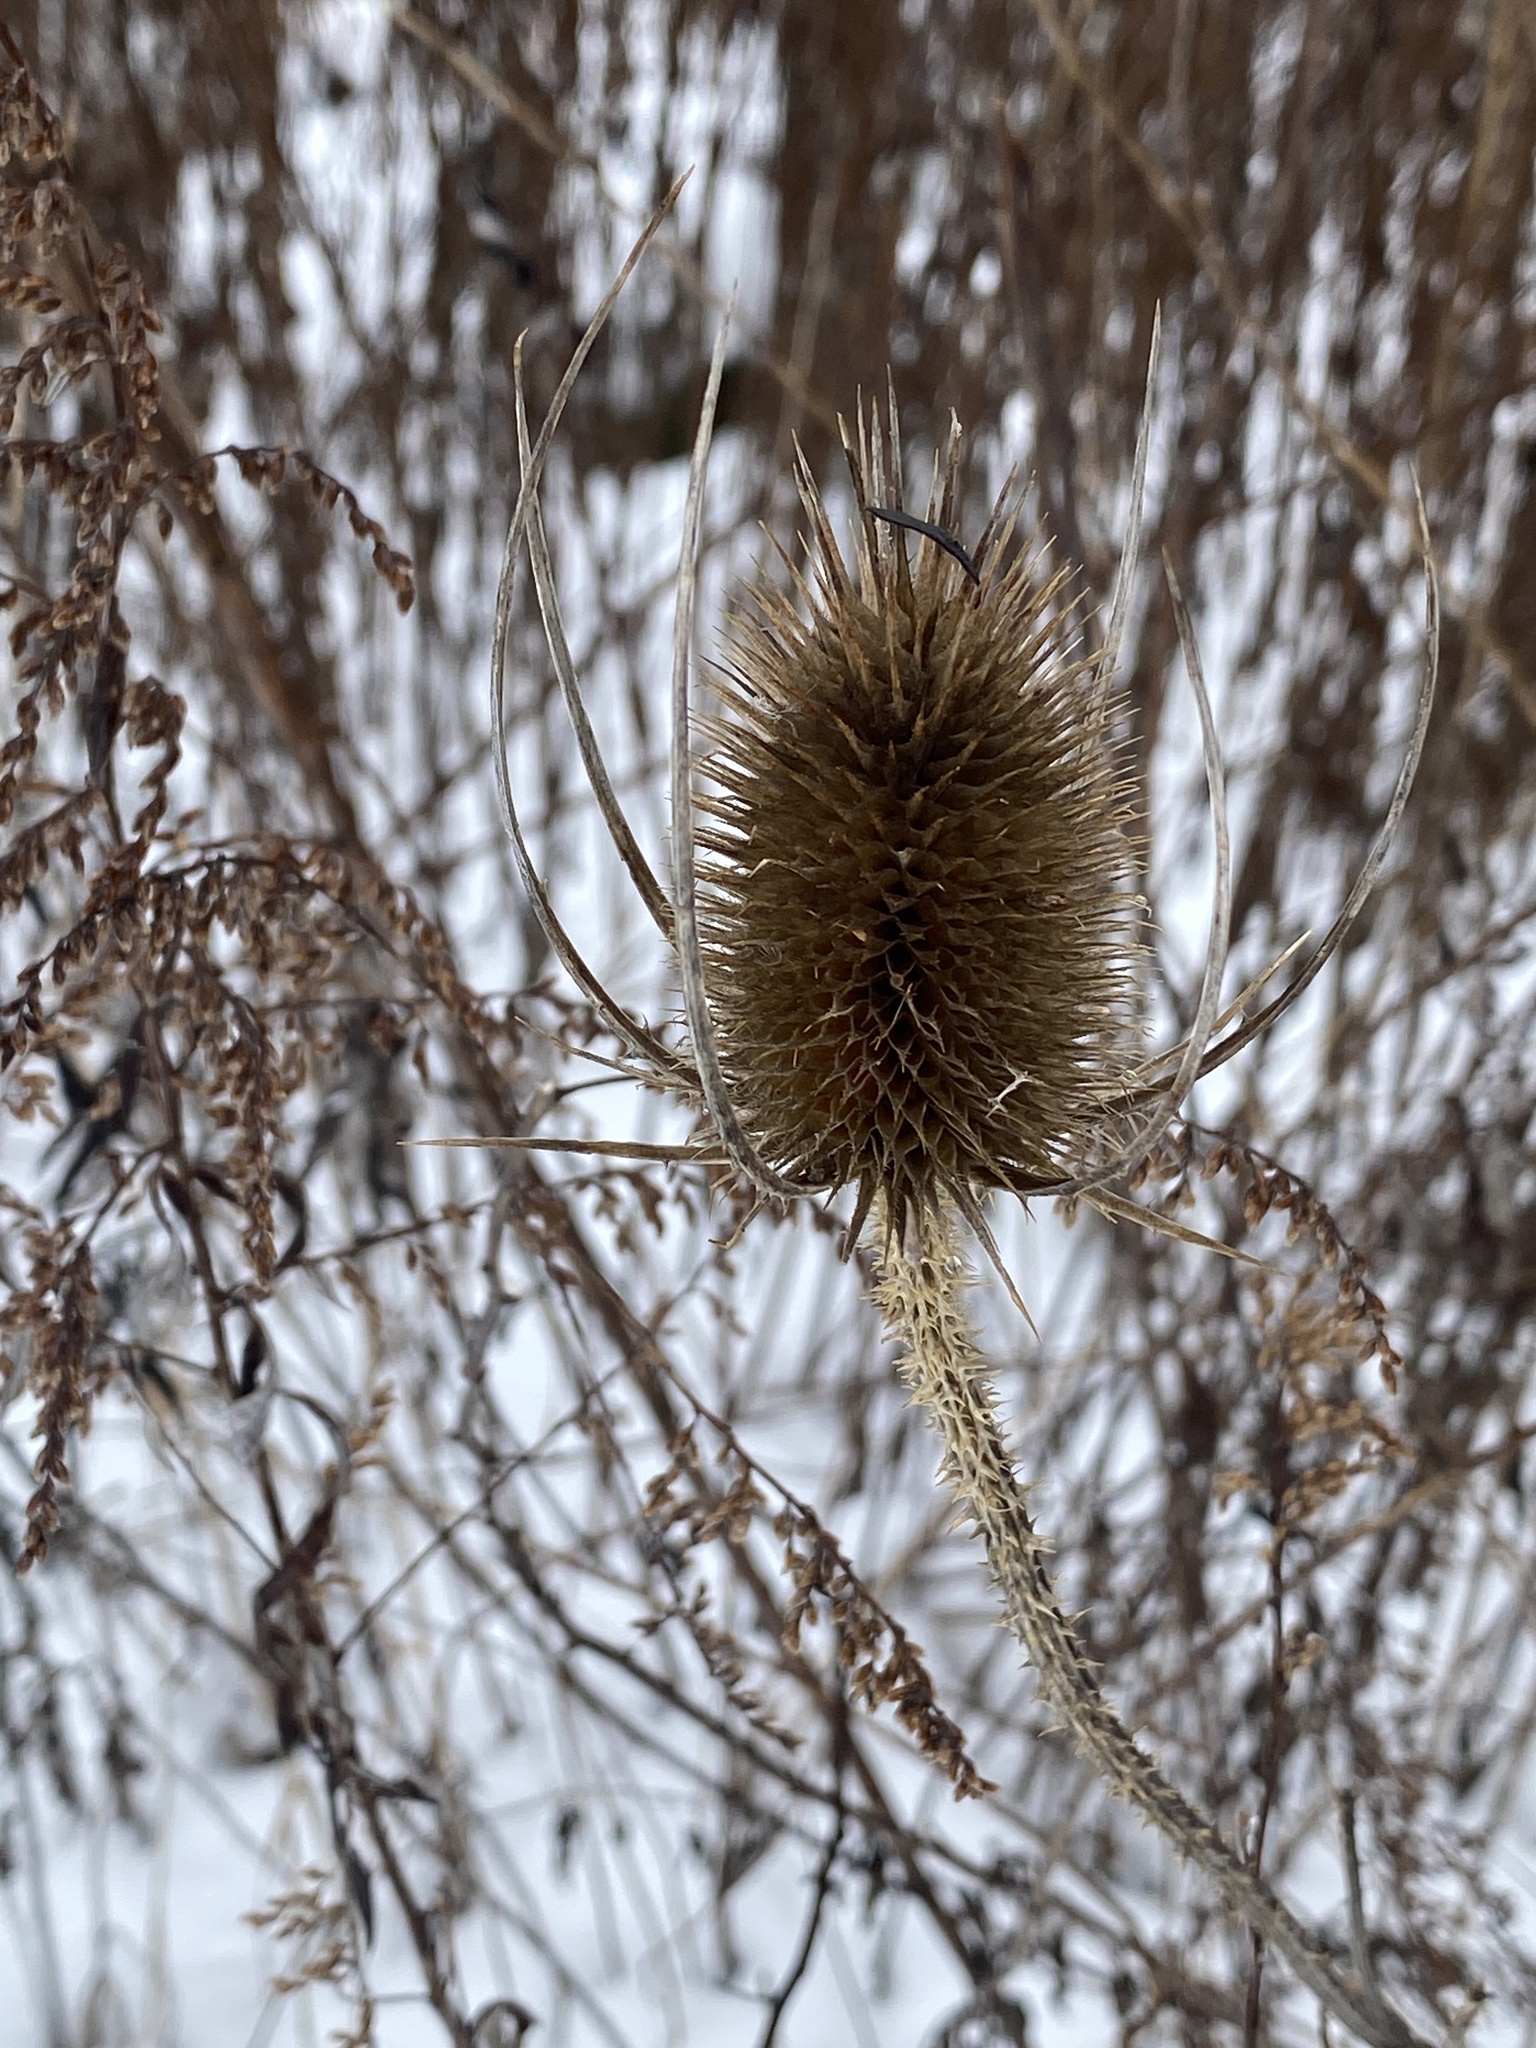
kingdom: Plantae
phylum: Tracheophyta
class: Magnoliopsida
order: Dipsacales
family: Caprifoliaceae
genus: Dipsacus
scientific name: Dipsacus fullonum
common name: Teasel
